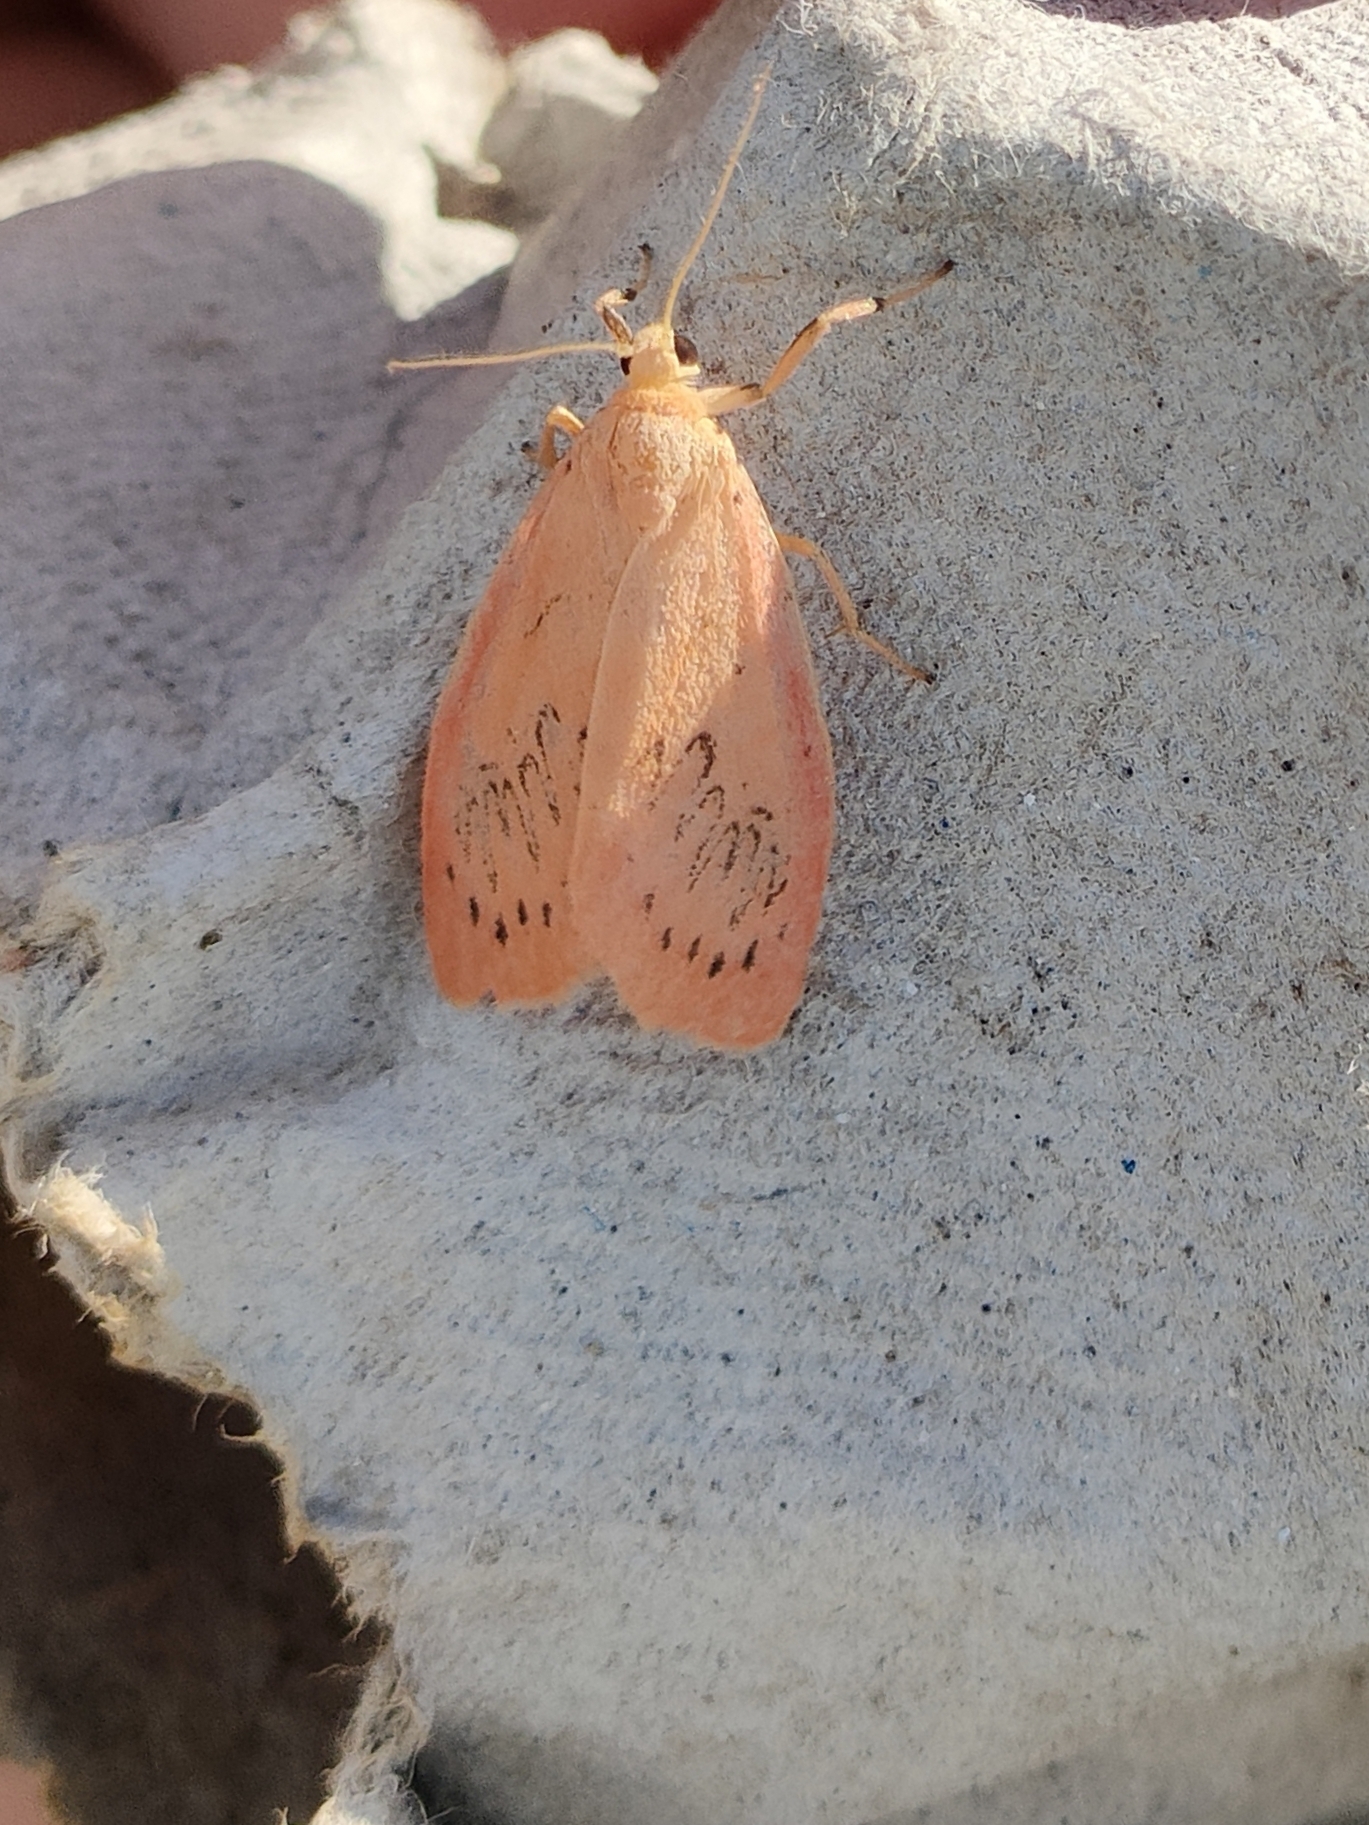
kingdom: Animalia
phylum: Arthropoda
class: Insecta
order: Lepidoptera
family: Erebidae
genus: Miltochrista
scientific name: Miltochrista miniata
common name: Rosy footman
